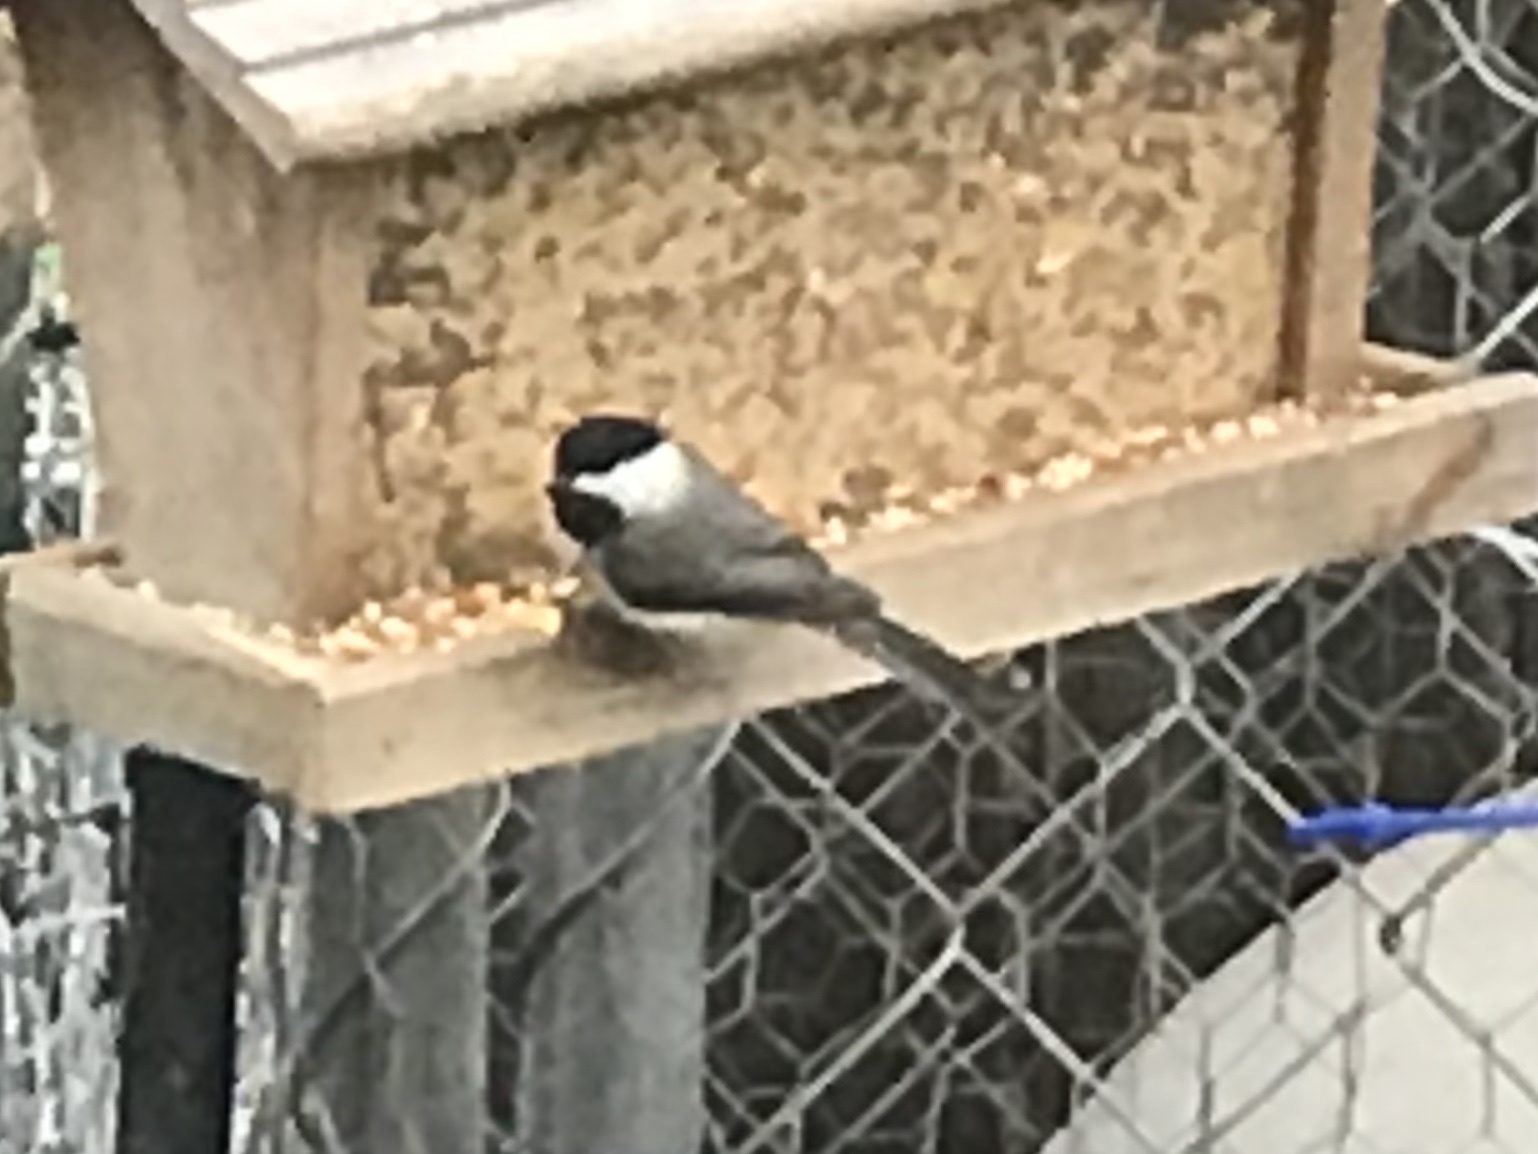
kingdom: Animalia
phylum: Chordata
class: Aves
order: Passeriformes
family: Paridae
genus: Poecile
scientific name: Poecile carolinensis
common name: Carolina chickadee
